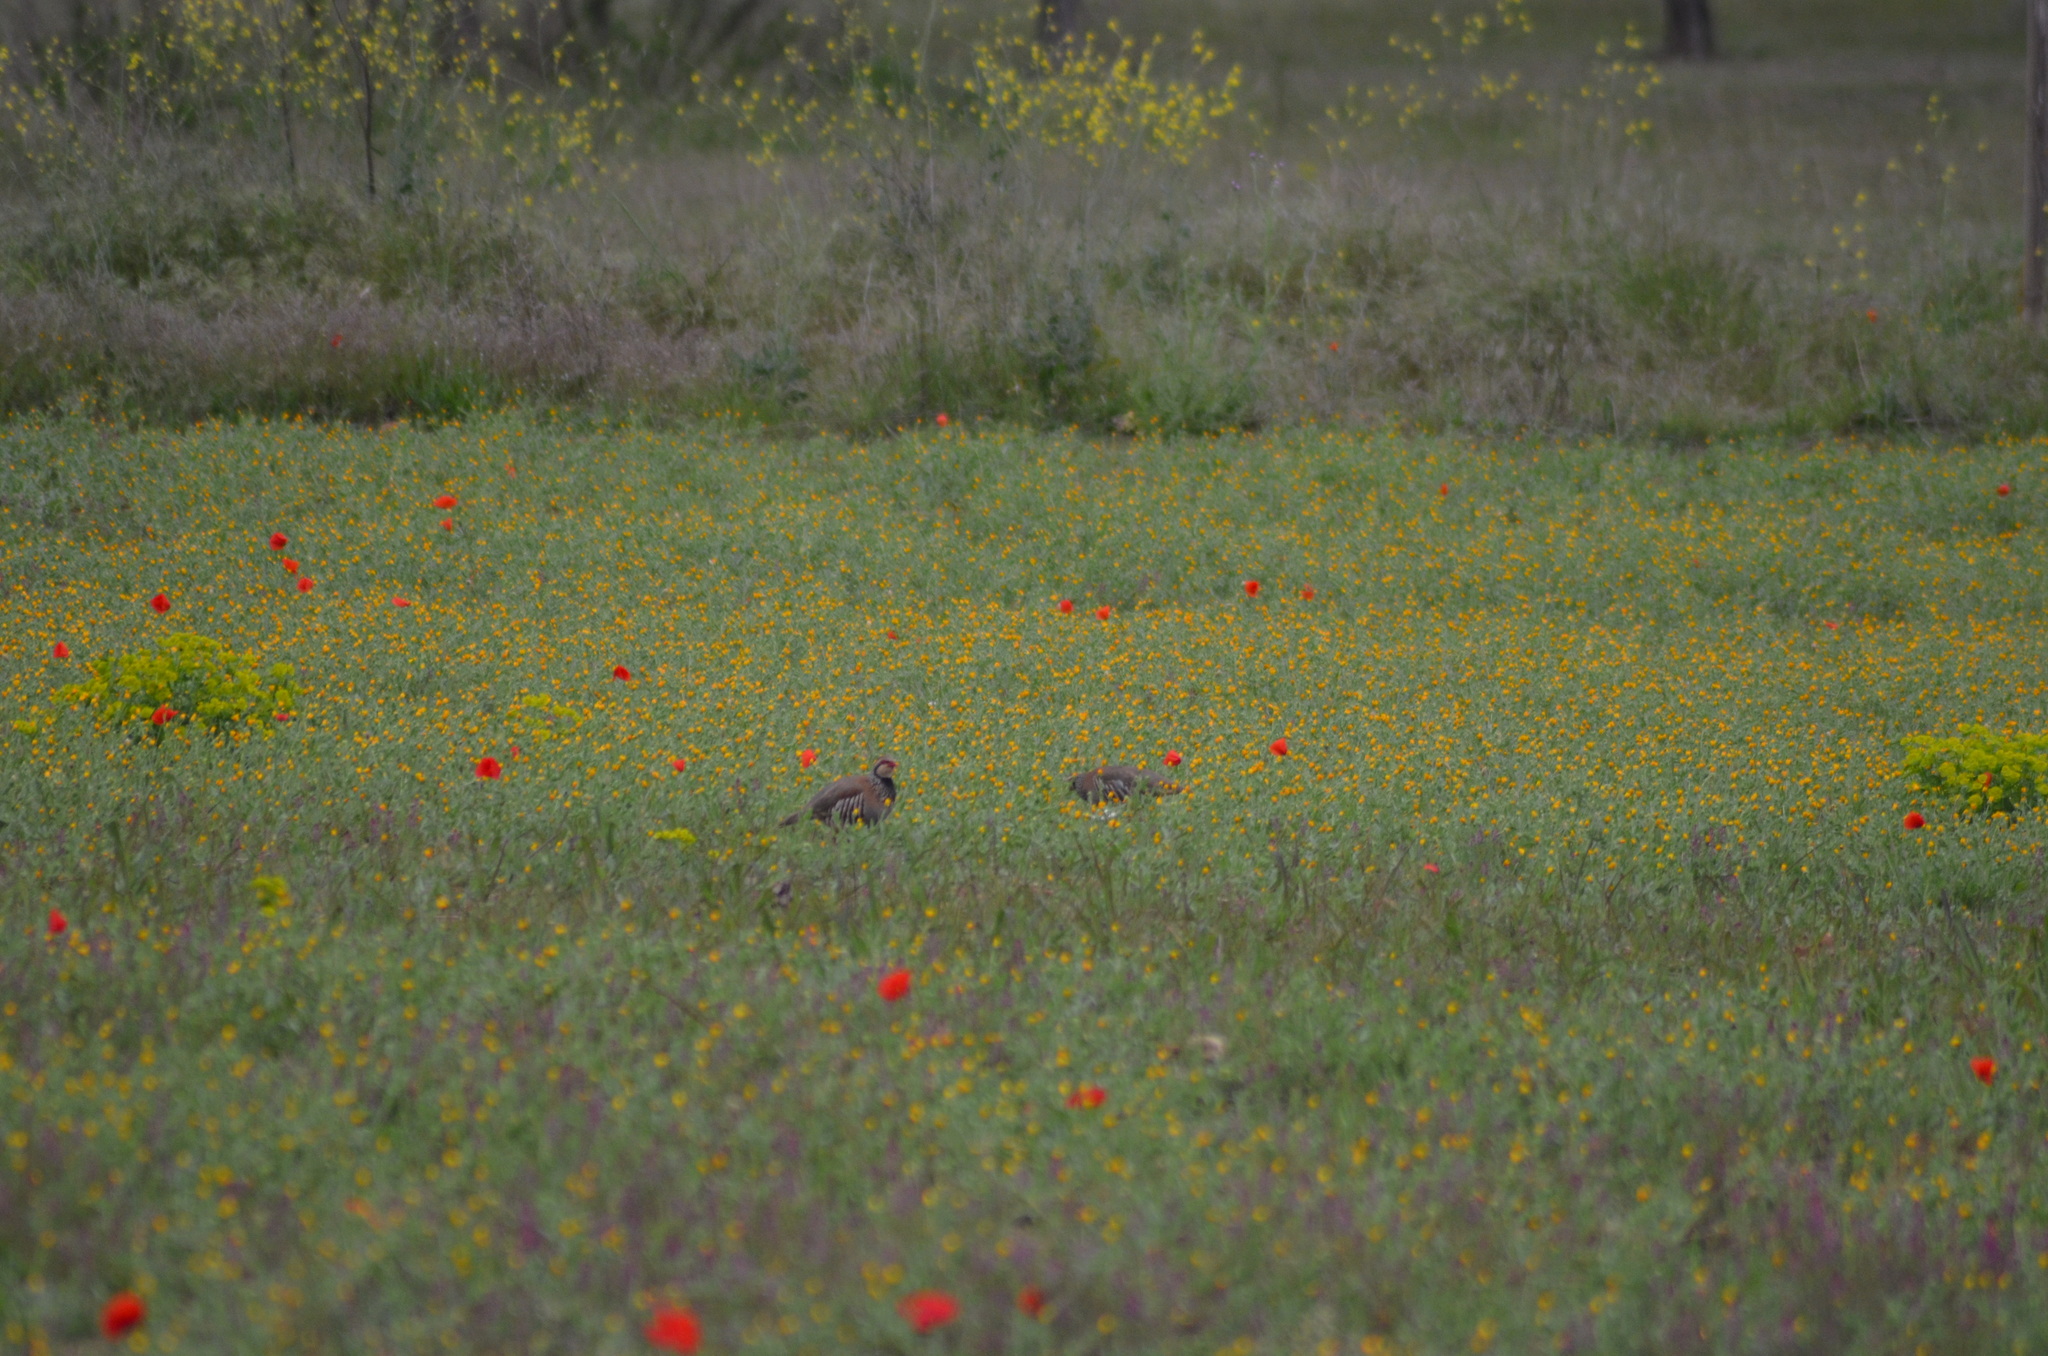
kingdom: Animalia
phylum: Chordata
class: Aves
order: Galliformes
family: Phasianidae
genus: Alectoris
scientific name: Alectoris rufa
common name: Red-legged partridge
